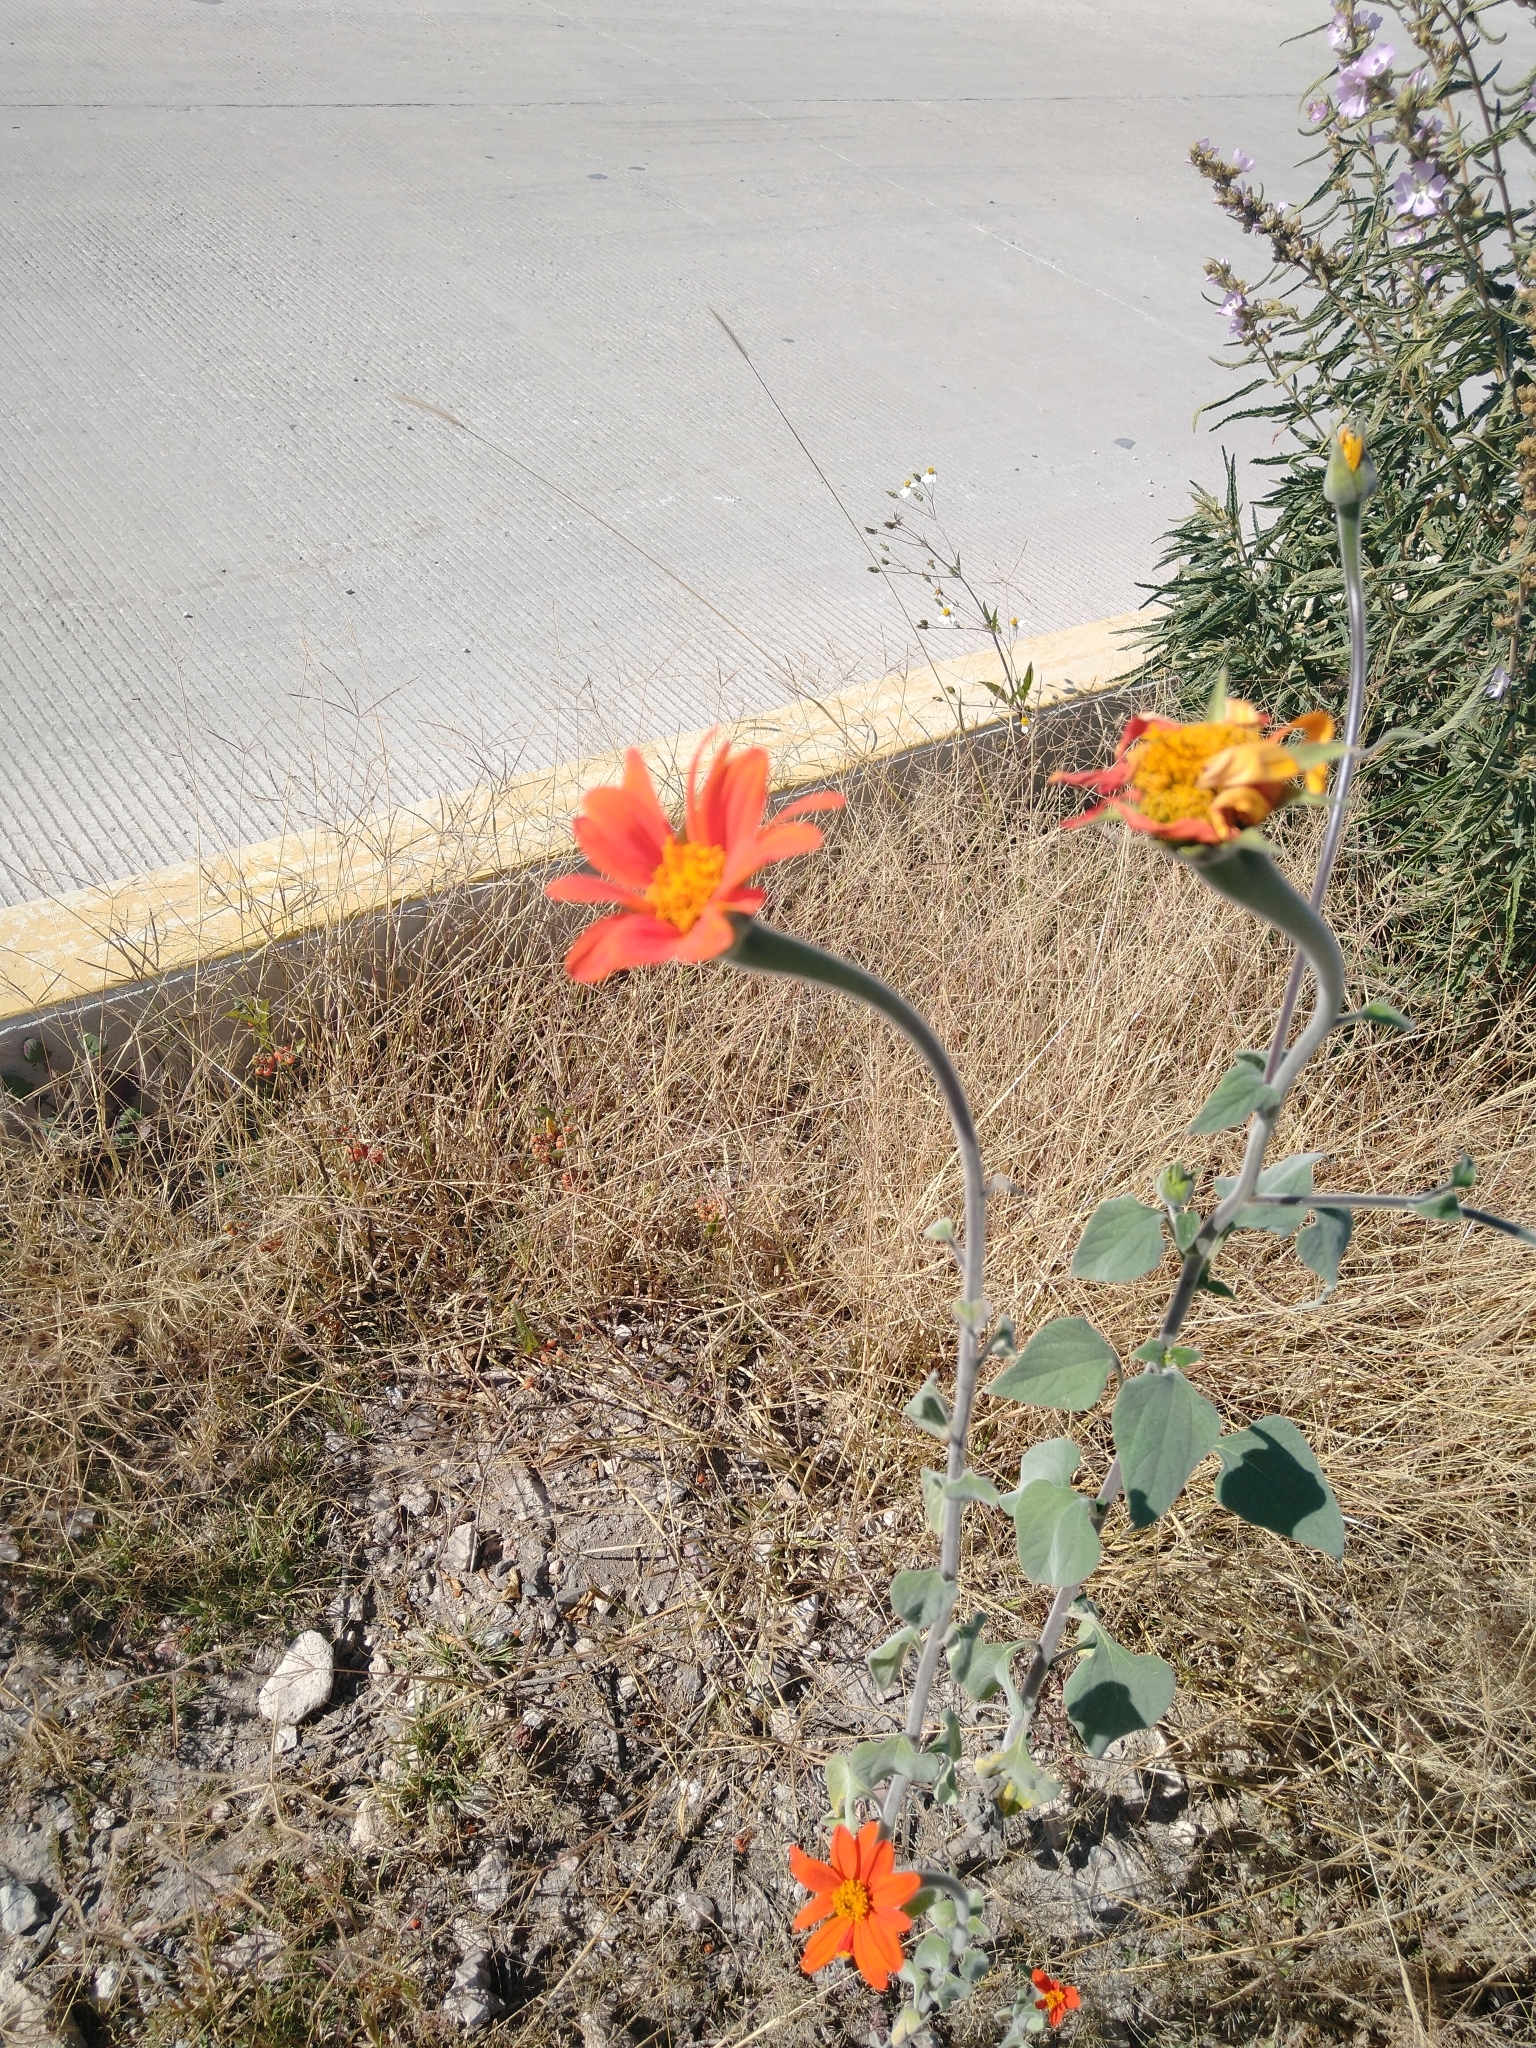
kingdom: Plantae
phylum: Tracheophyta
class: Magnoliopsida
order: Asterales
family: Asteraceae
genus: Tithonia
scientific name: Tithonia rotundifolia
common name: Sunflower
